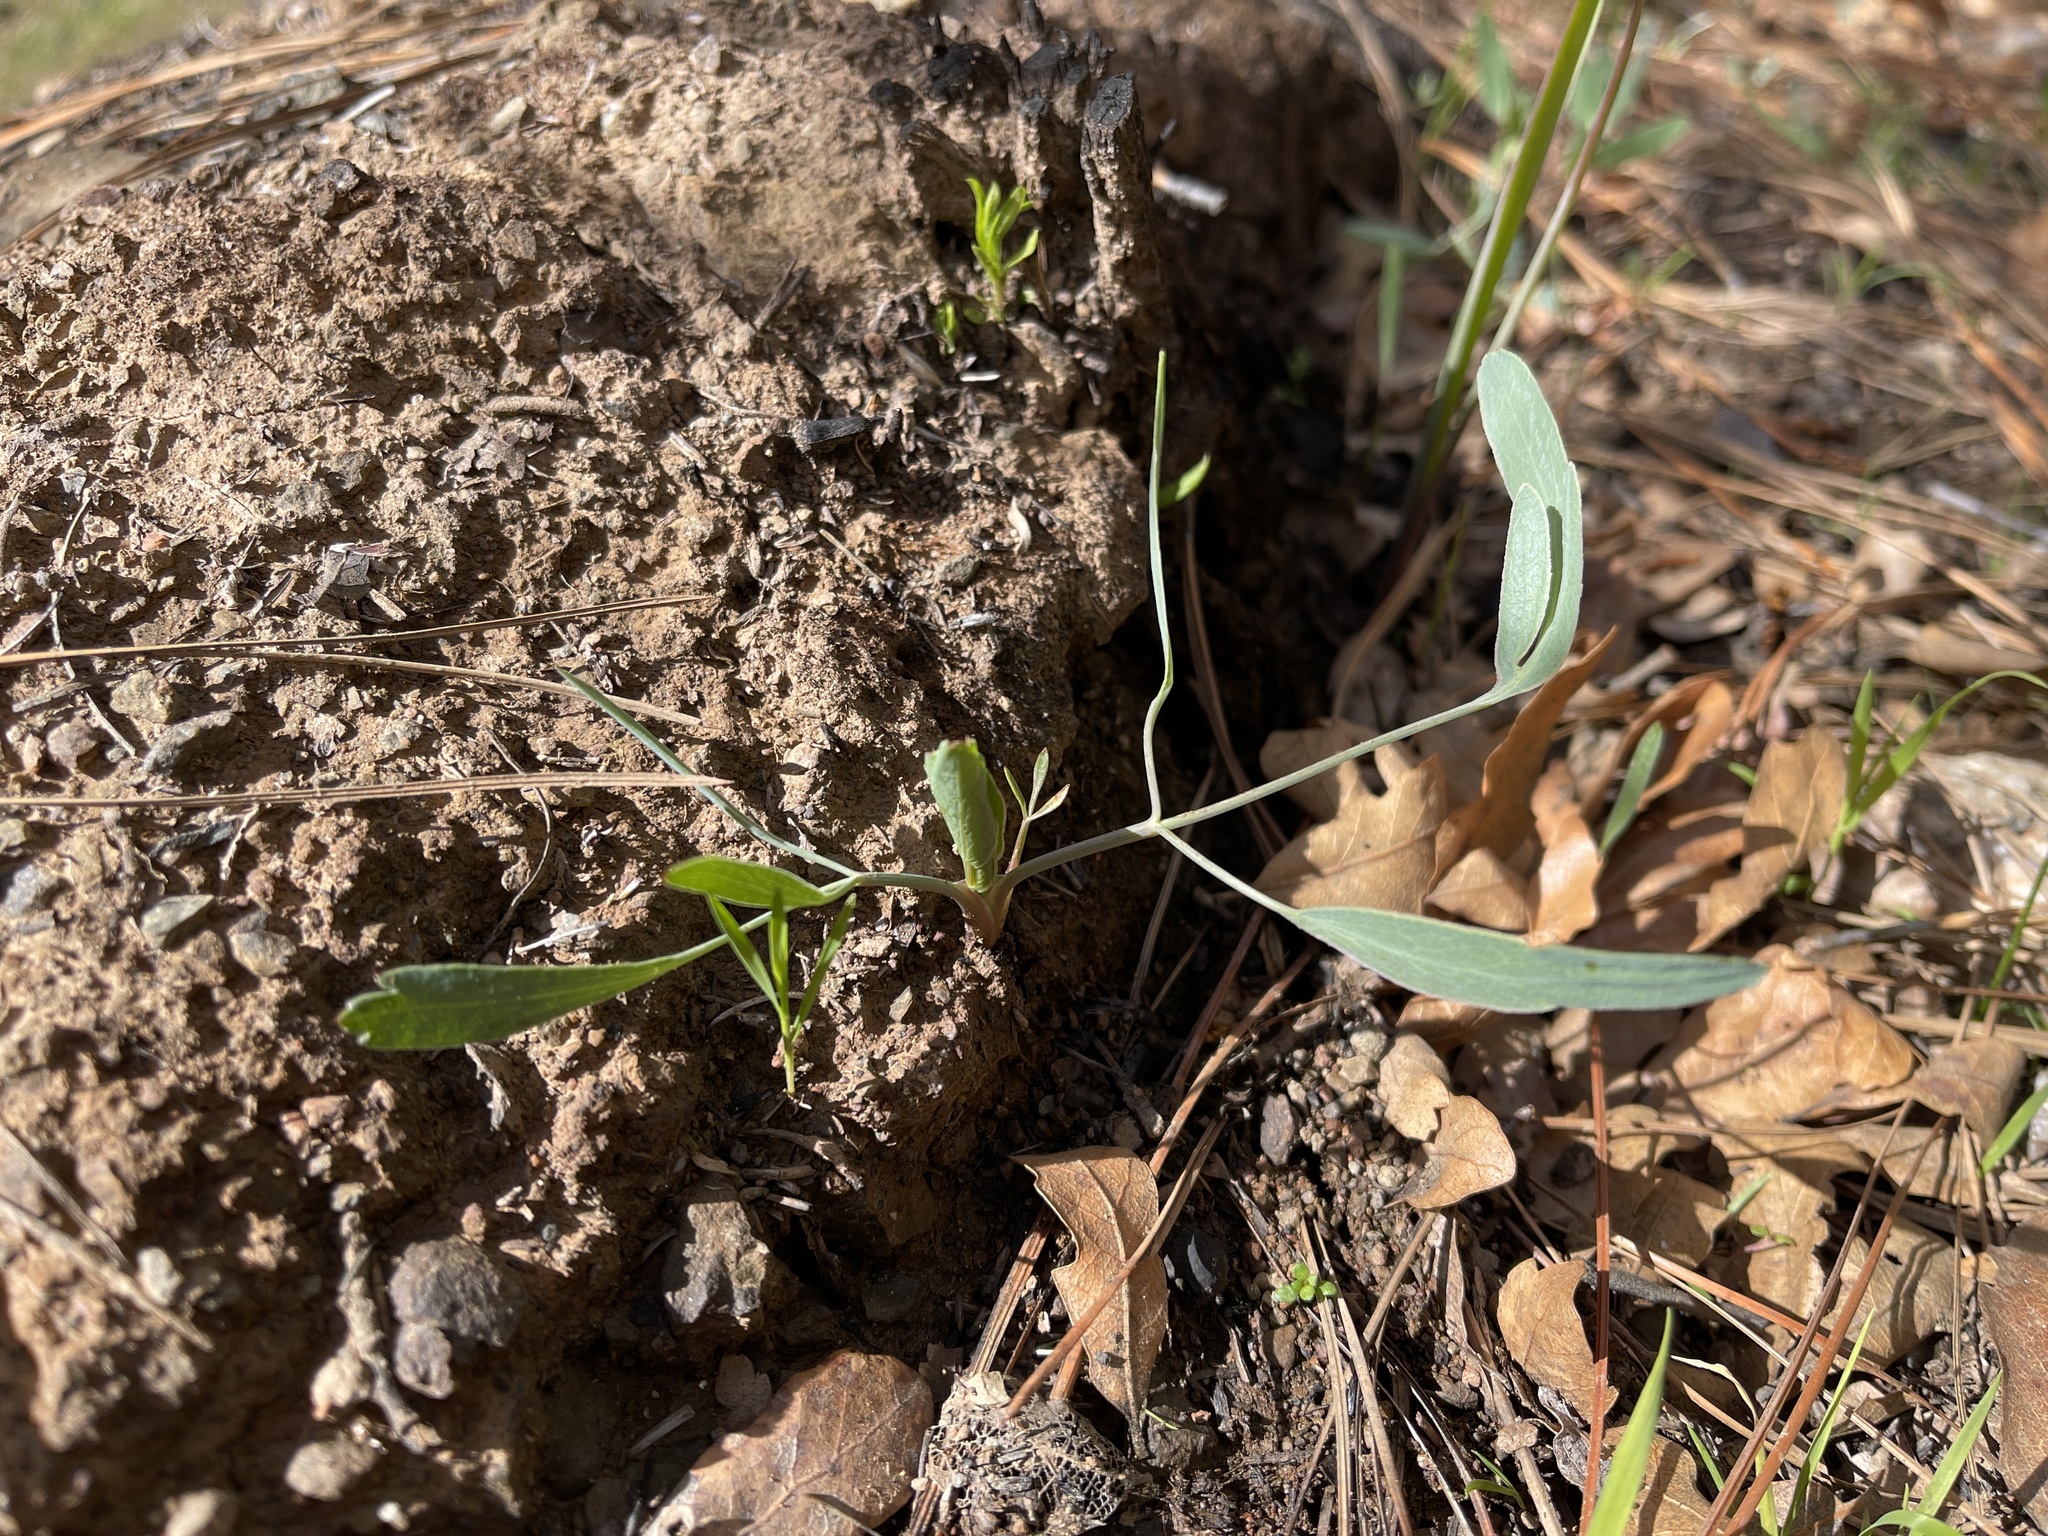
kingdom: Plantae
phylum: Tracheophyta
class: Magnoliopsida
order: Apiales
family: Apiaceae
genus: Lomatium
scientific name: Lomatium nudicaule
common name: Pestle lomatium
